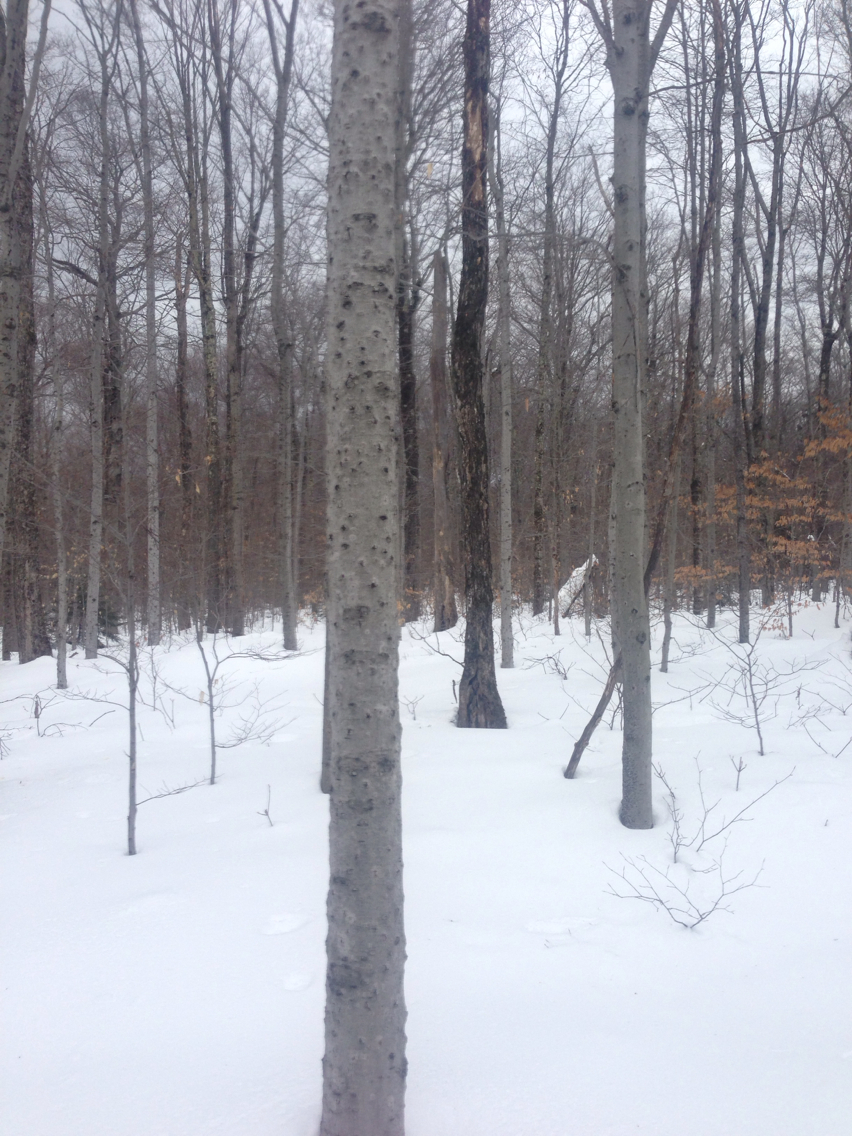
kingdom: Plantae
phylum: Tracheophyta
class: Magnoliopsida
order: Fagales
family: Fagaceae
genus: Fagus
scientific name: Fagus grandifolia
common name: American beech
